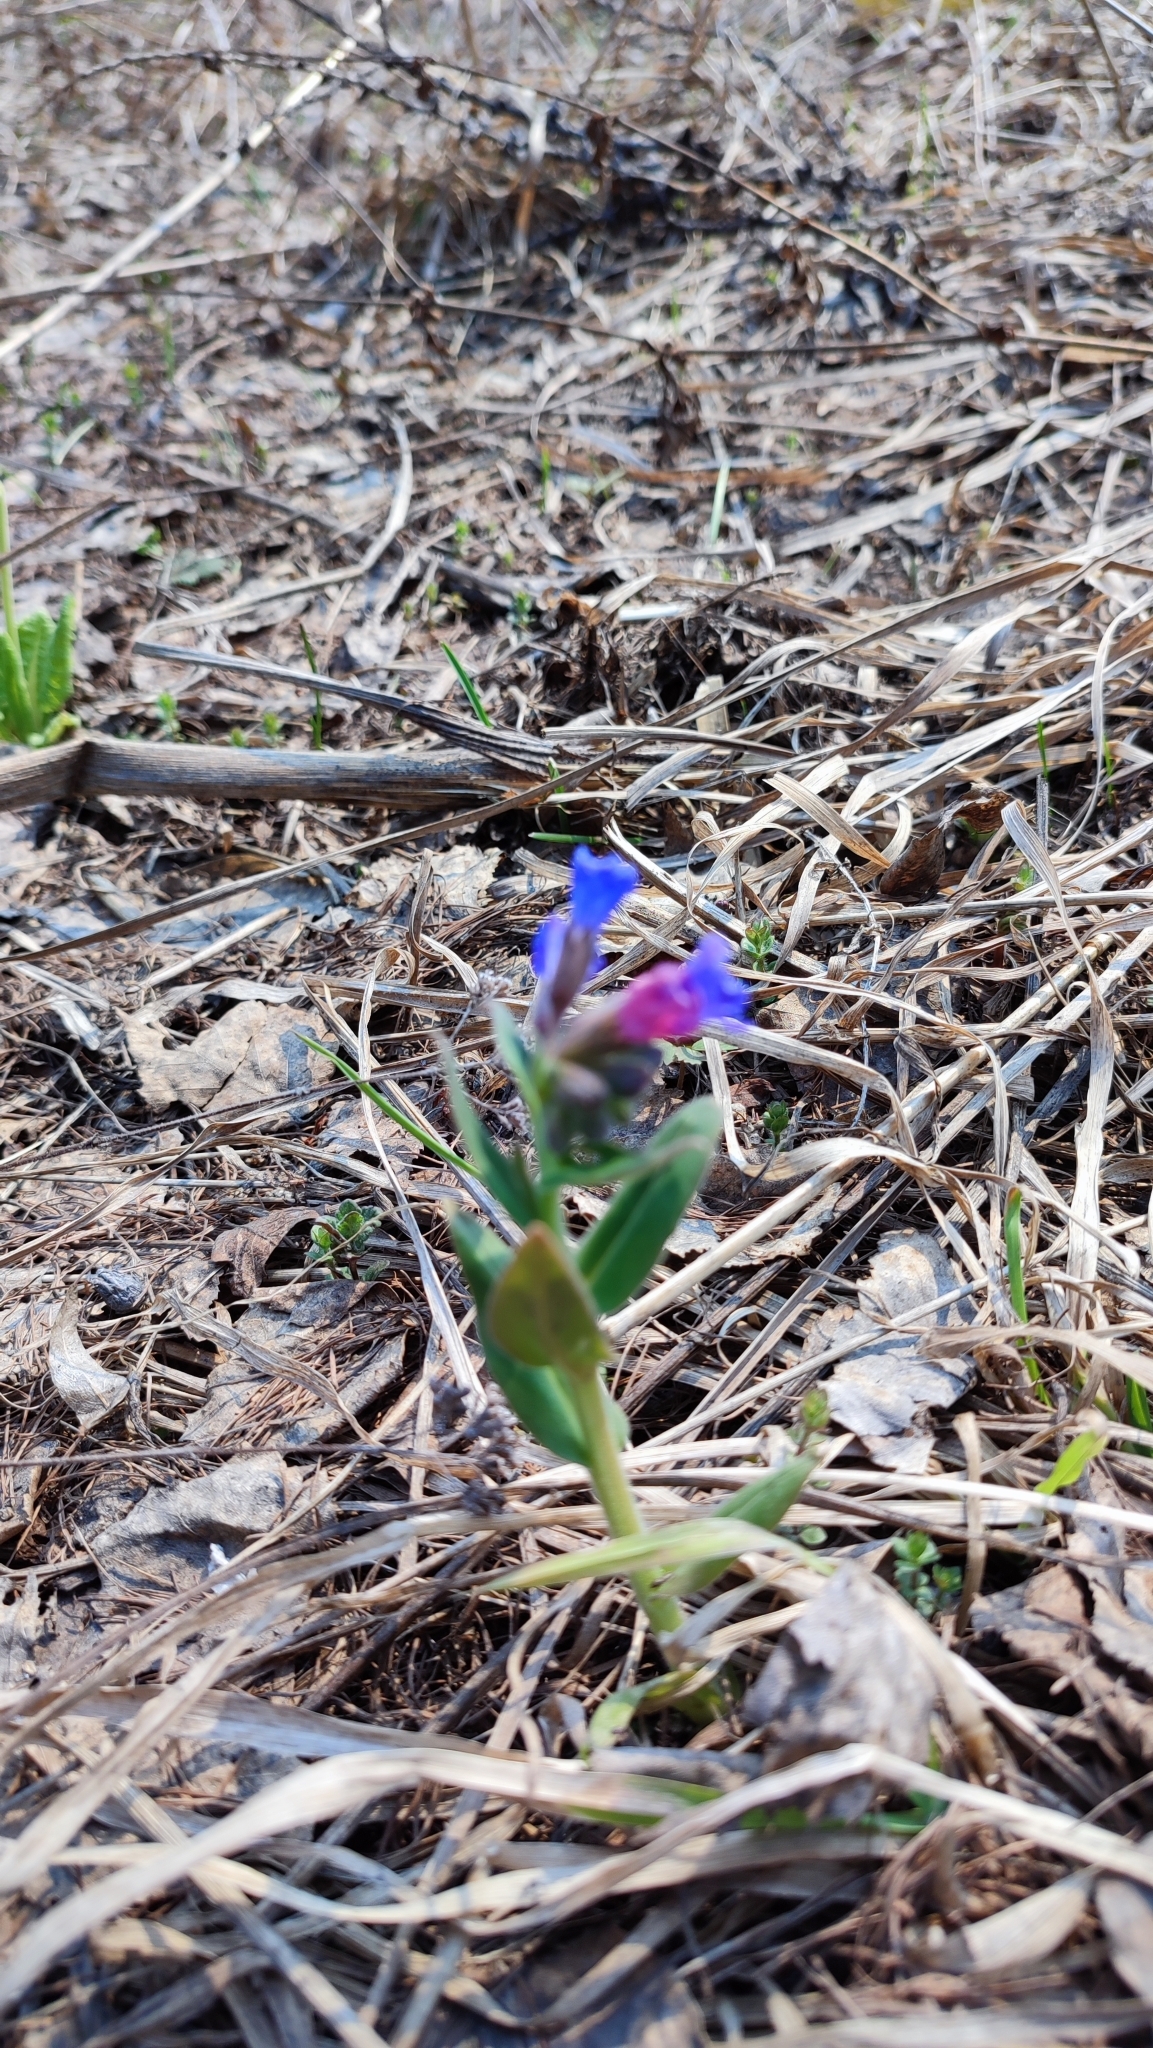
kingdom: Plantae
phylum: Tracheophyta
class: Magnoliopsida
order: Boraginales
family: Boraginaceae
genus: Pulmonaria
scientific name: Pulmonaria mollis
